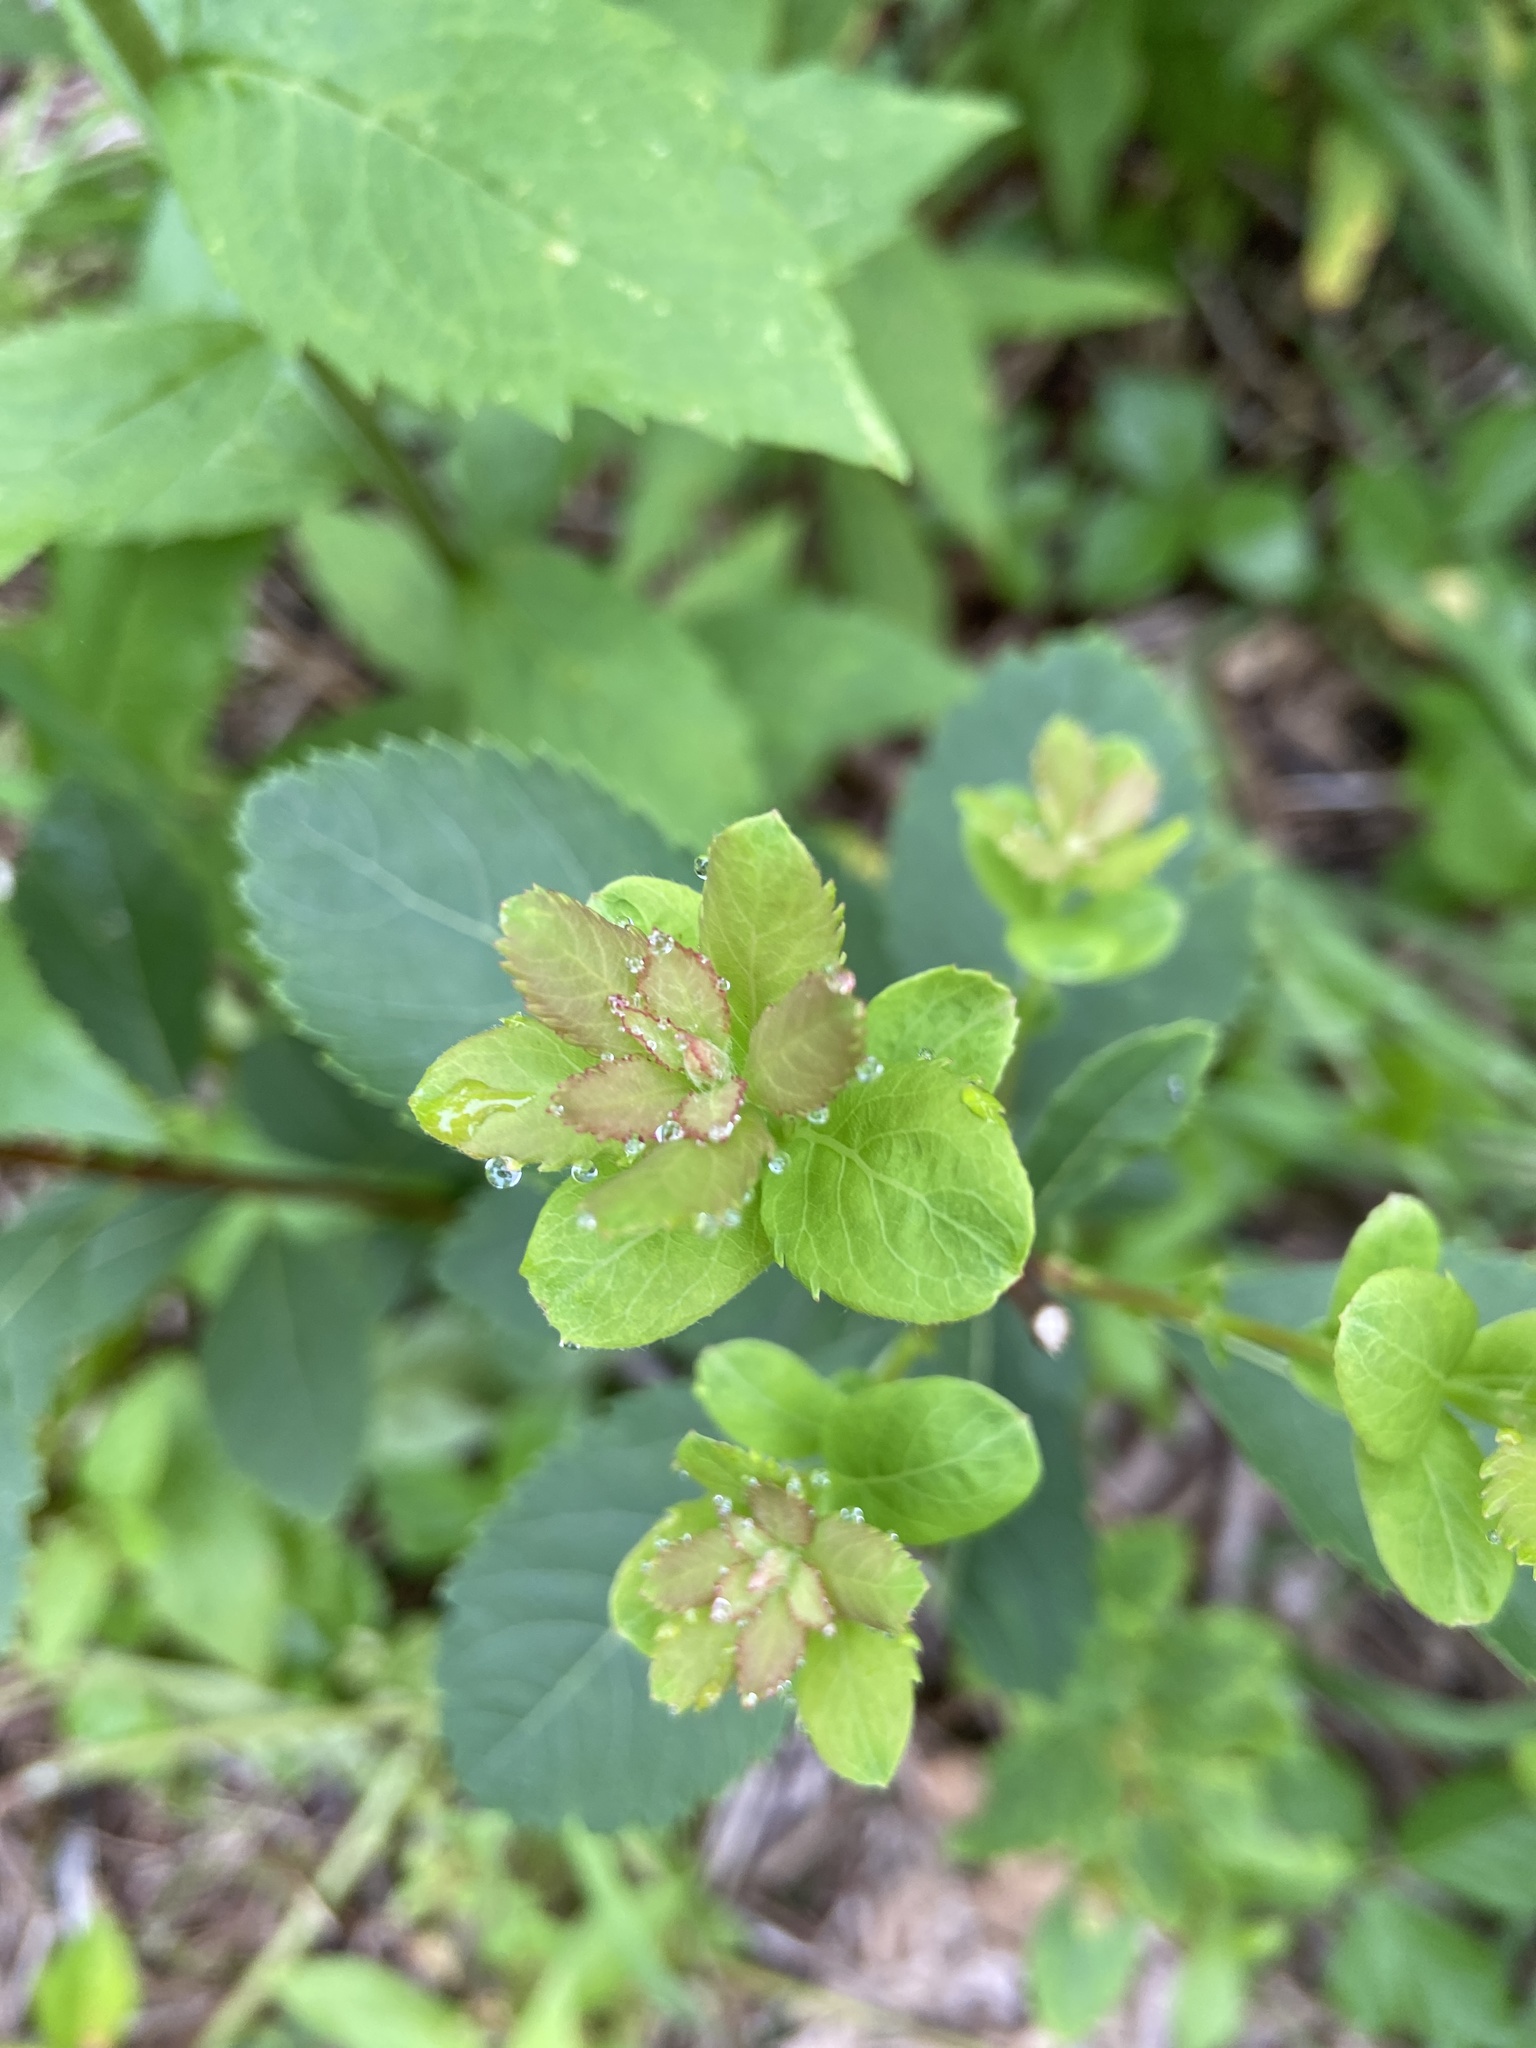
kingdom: Plantae
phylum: Tracheophyta
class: Magnoliopsida
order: Rosales
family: Rosaceae
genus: Spiraea
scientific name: Spiraea alba
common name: Pale bridewort
